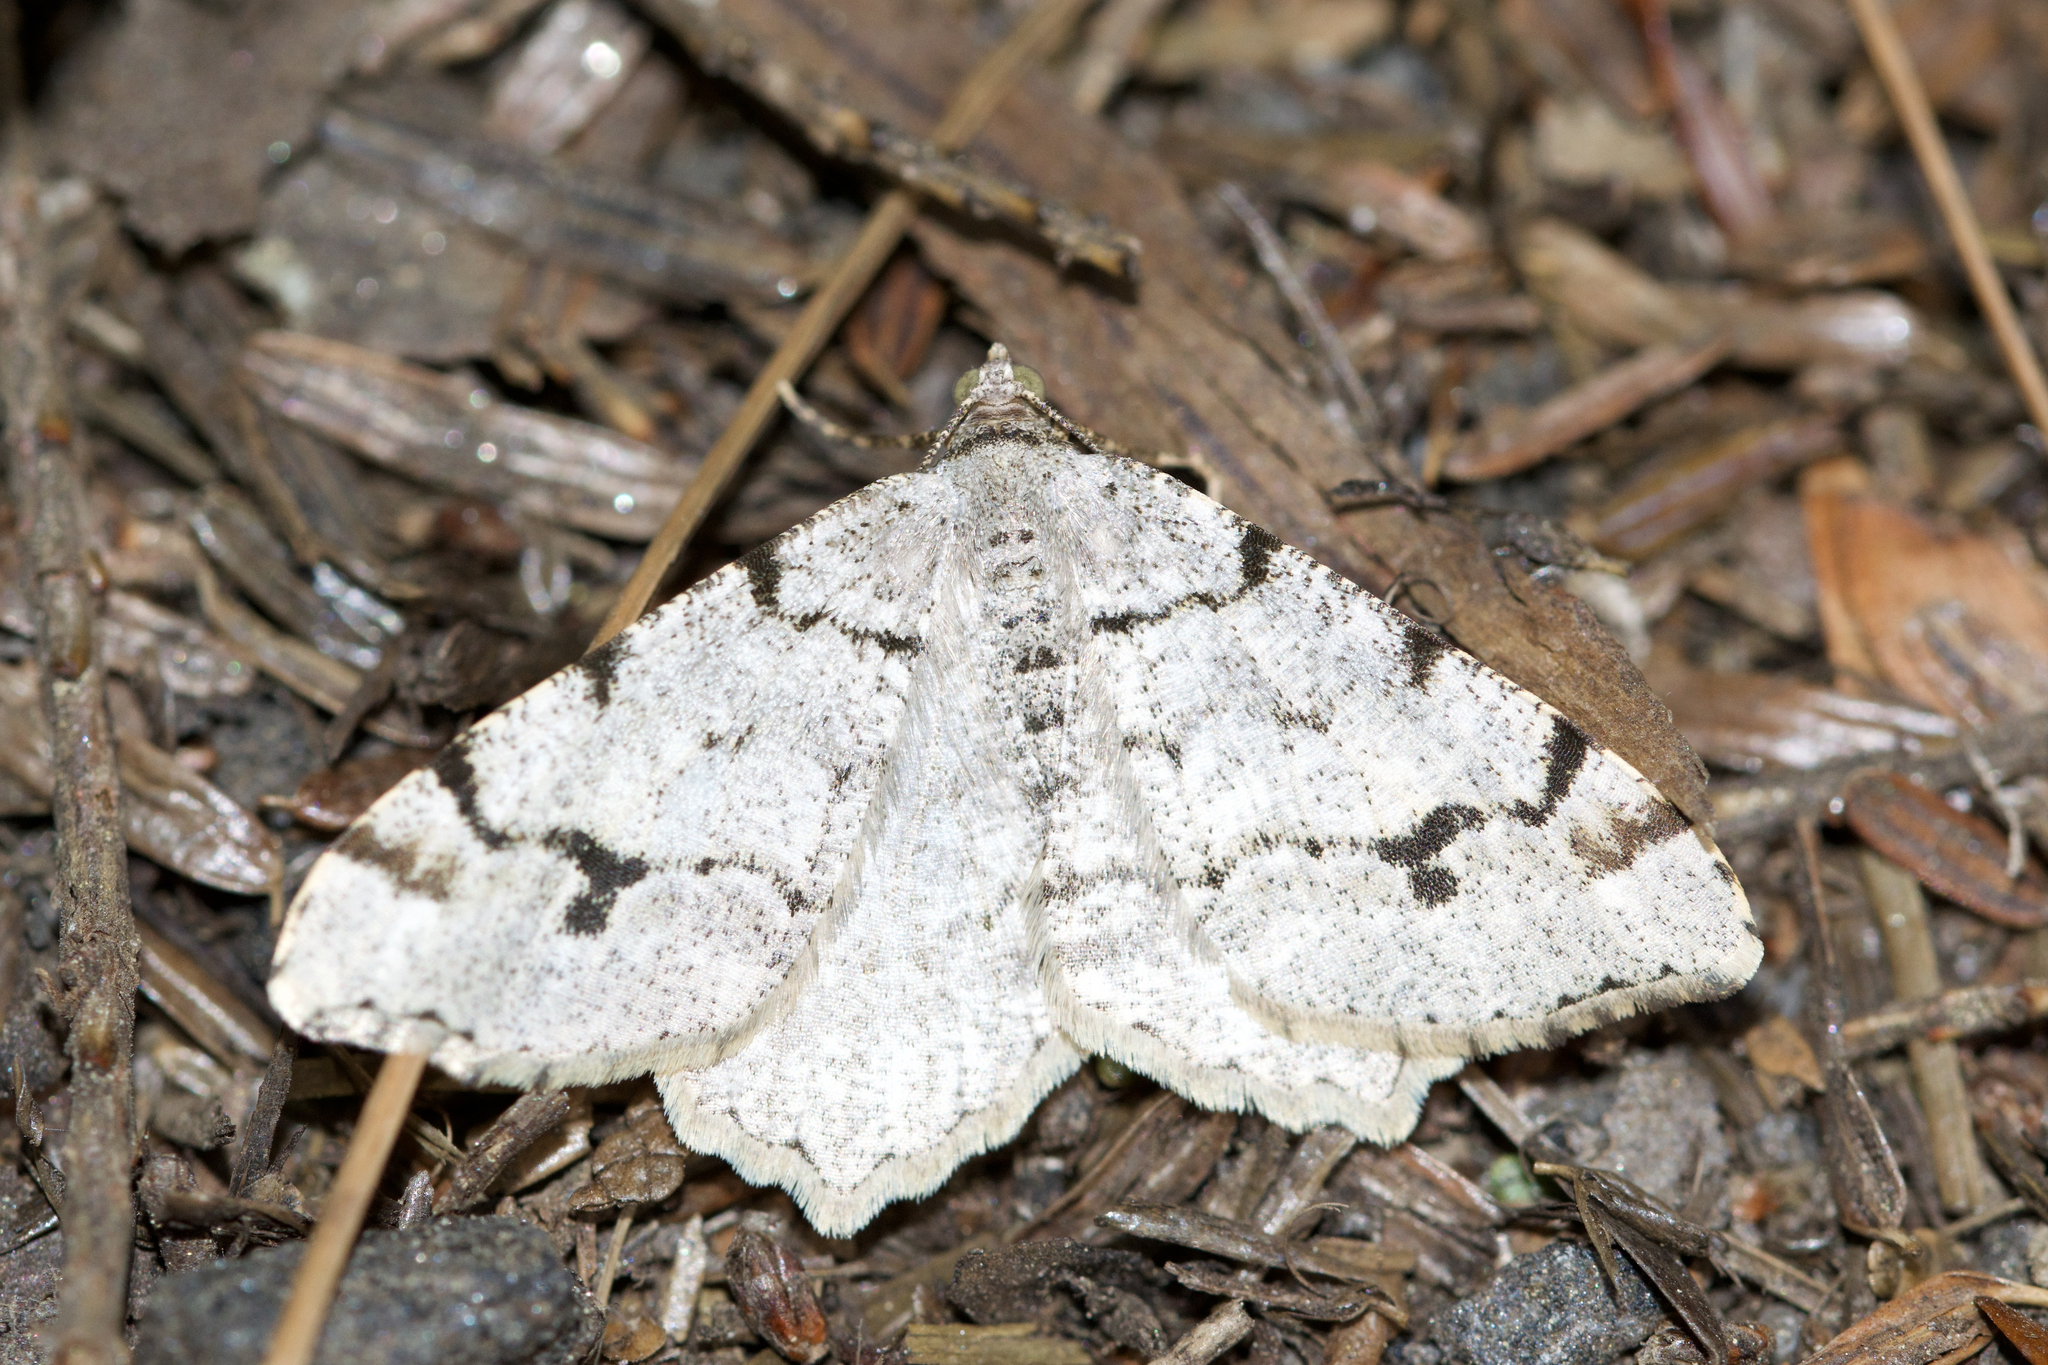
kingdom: Animalia
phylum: Arthropoda
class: Insecta
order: Lepidoptera
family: Geometridae
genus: Macaria
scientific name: Macaria fissinotata
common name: Hemlock angle
